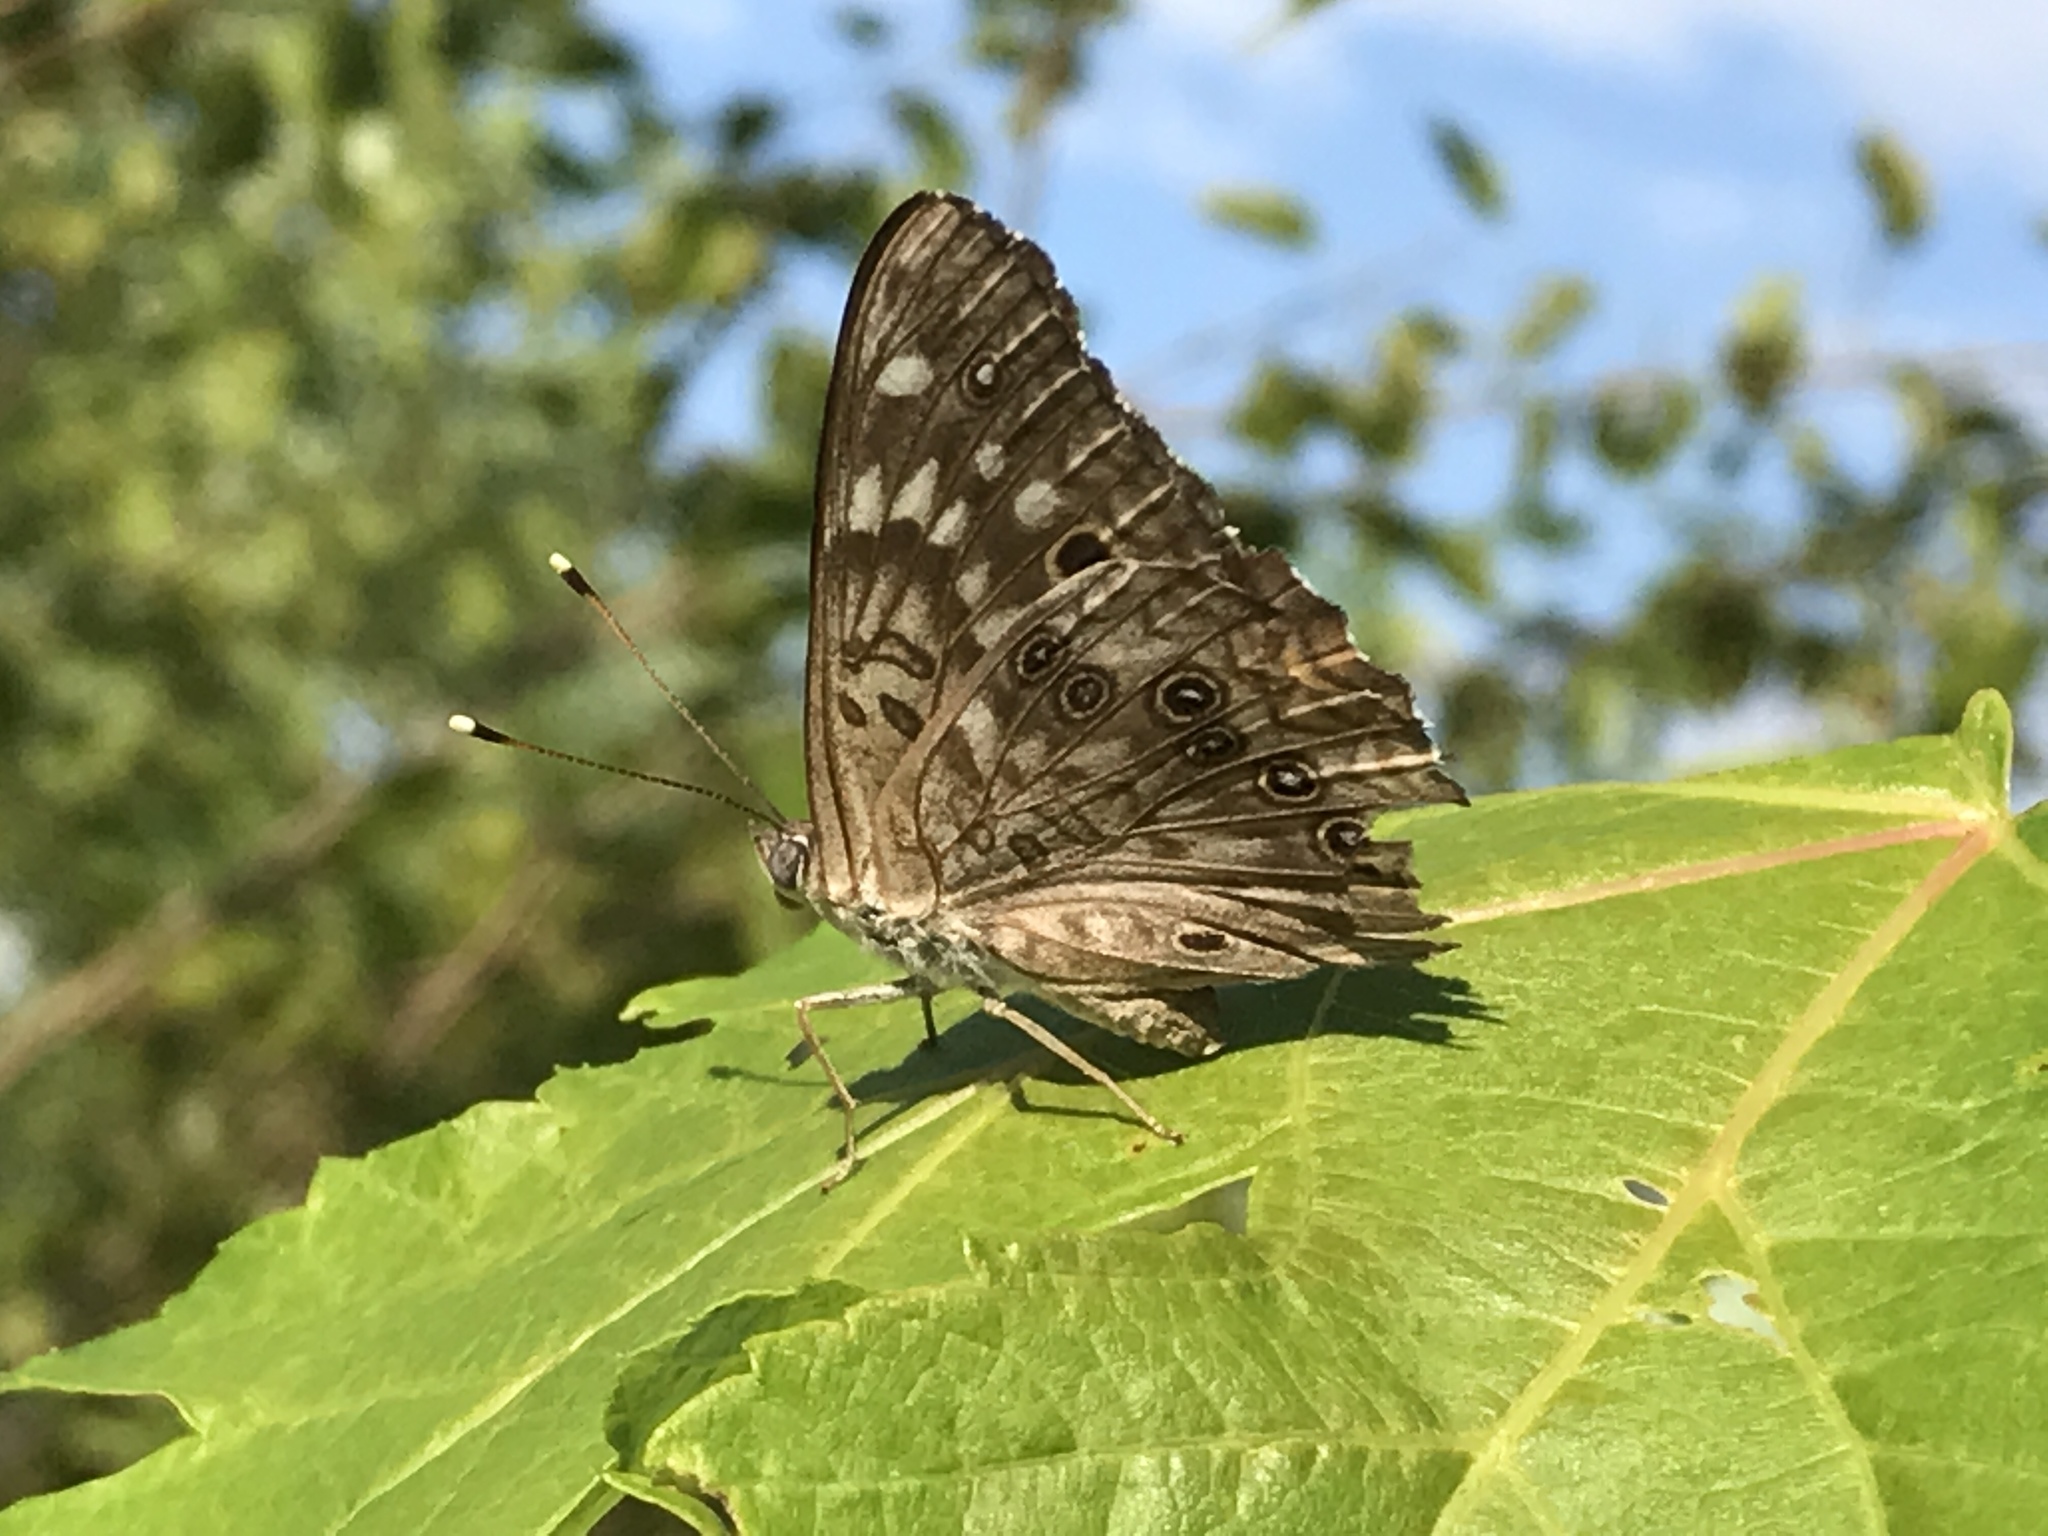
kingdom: Animalia
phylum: Arthropoda
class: Insecta
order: Lepidoptera
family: Nymphalidae
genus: Asterocampa
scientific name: Asterocampa celtis
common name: Hackberry emperor
